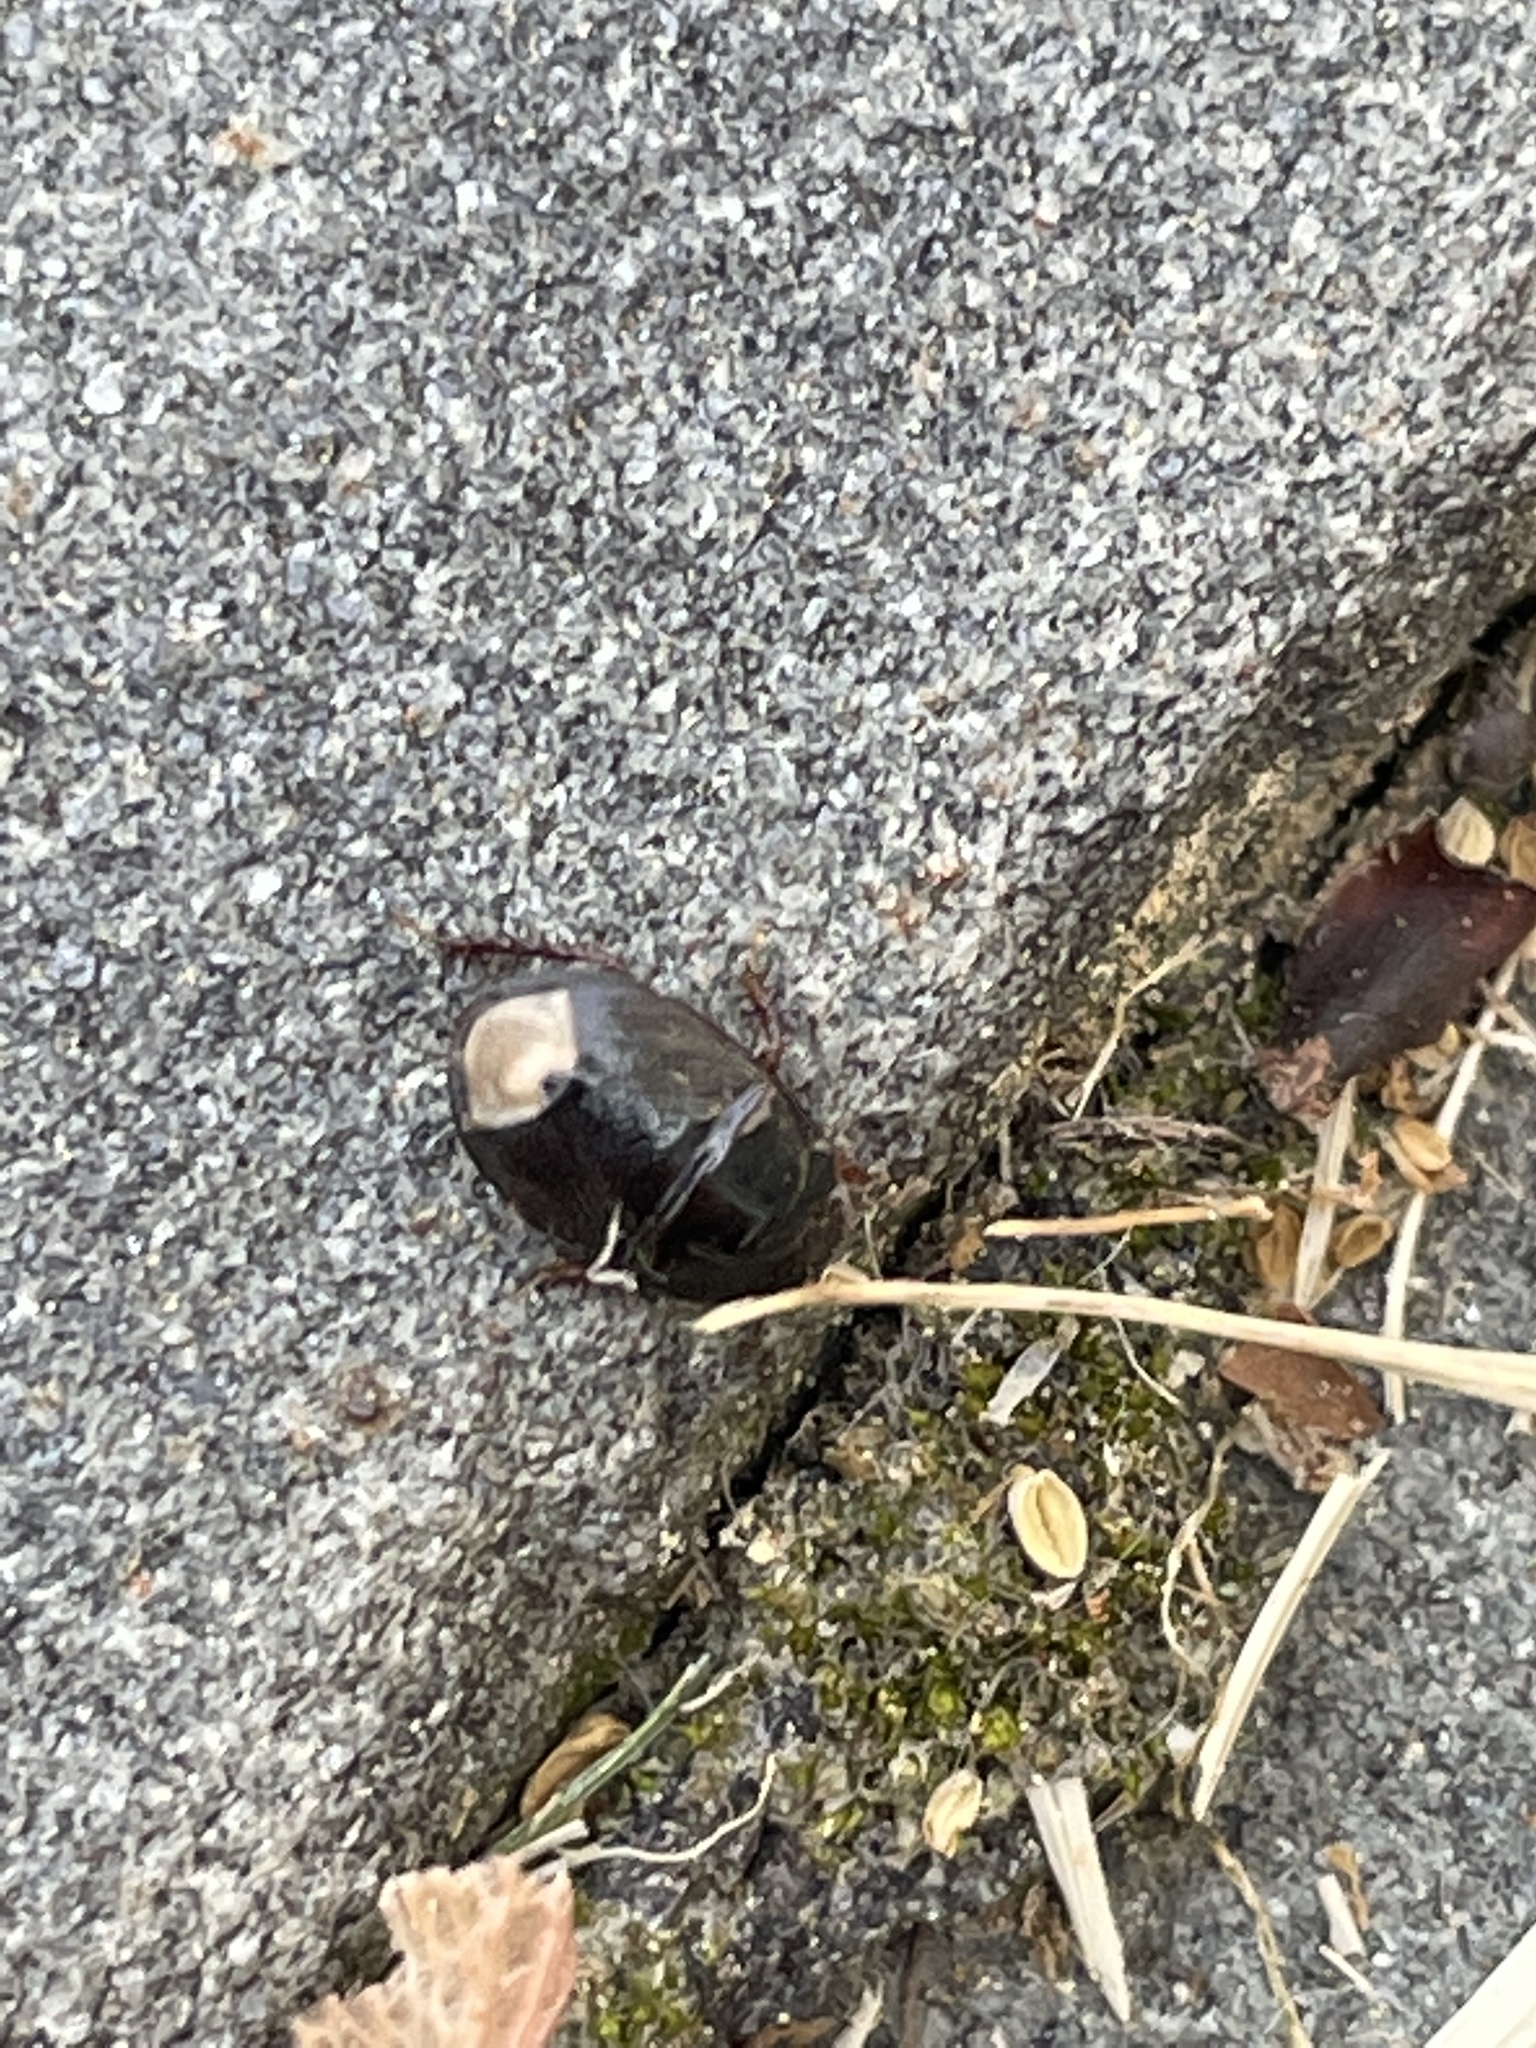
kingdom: Animalia
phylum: Arthropoda
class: Insecta
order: Hemiptera
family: Cydnidae
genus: Pangaeus
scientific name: Pangaeus bilineatus
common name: Burrower bug
